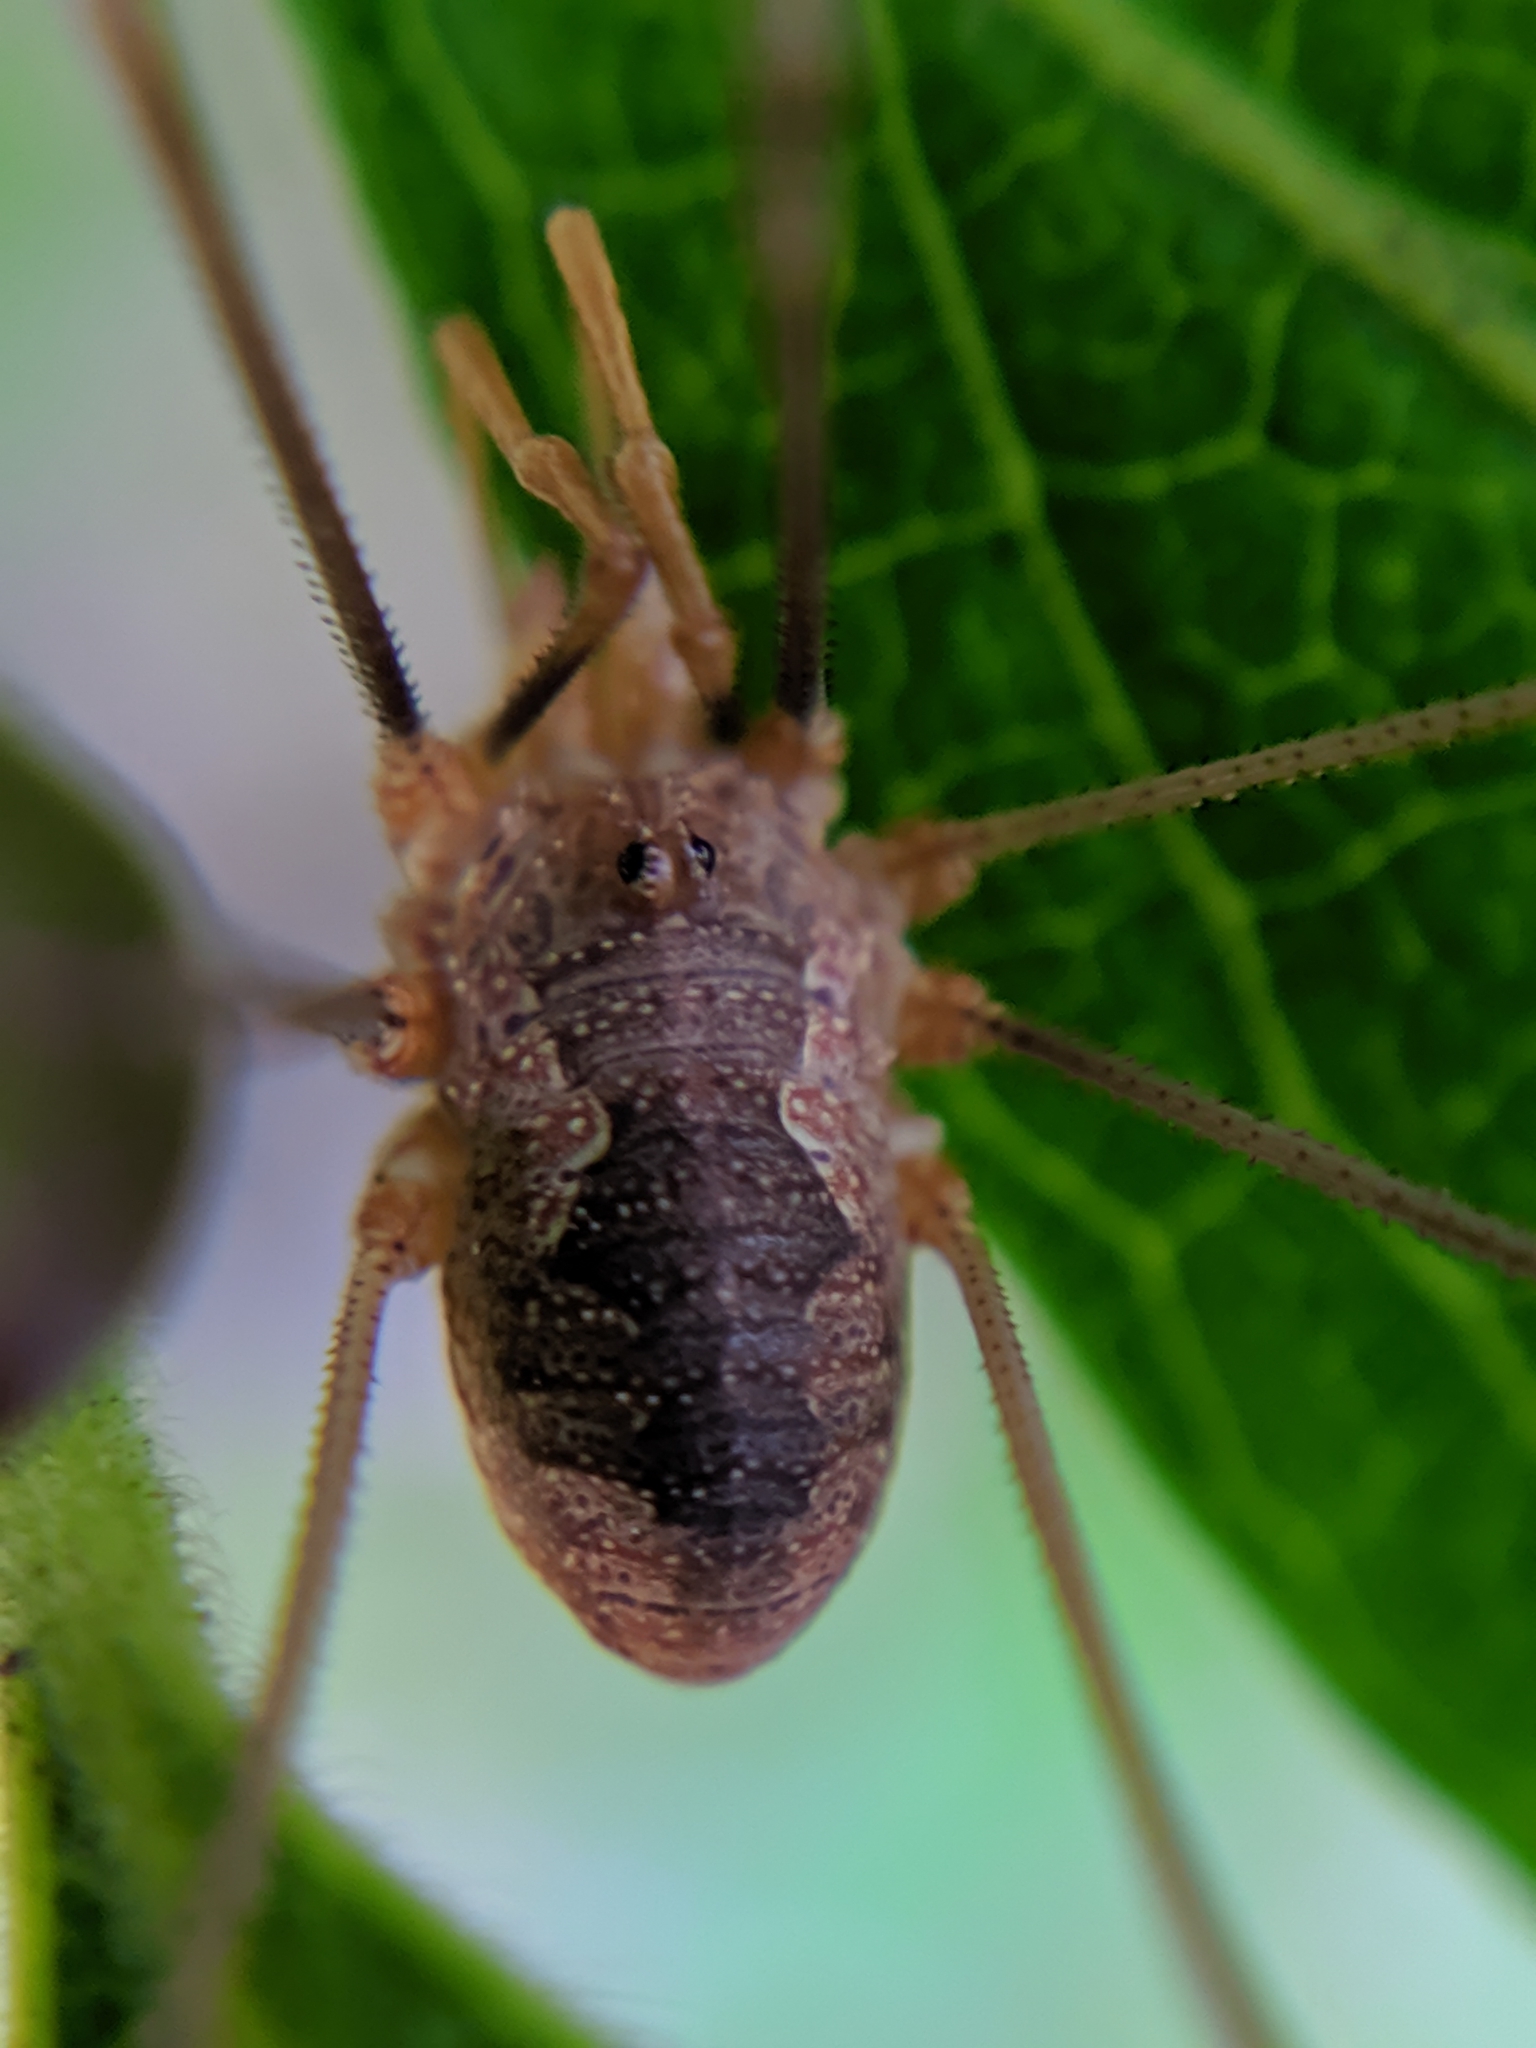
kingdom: Animalia
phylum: Arthropoda
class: Arachnida
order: Opiliones
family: Phalangiidae
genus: Phalangium
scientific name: Phalangium opilio
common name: Daddy longleg
